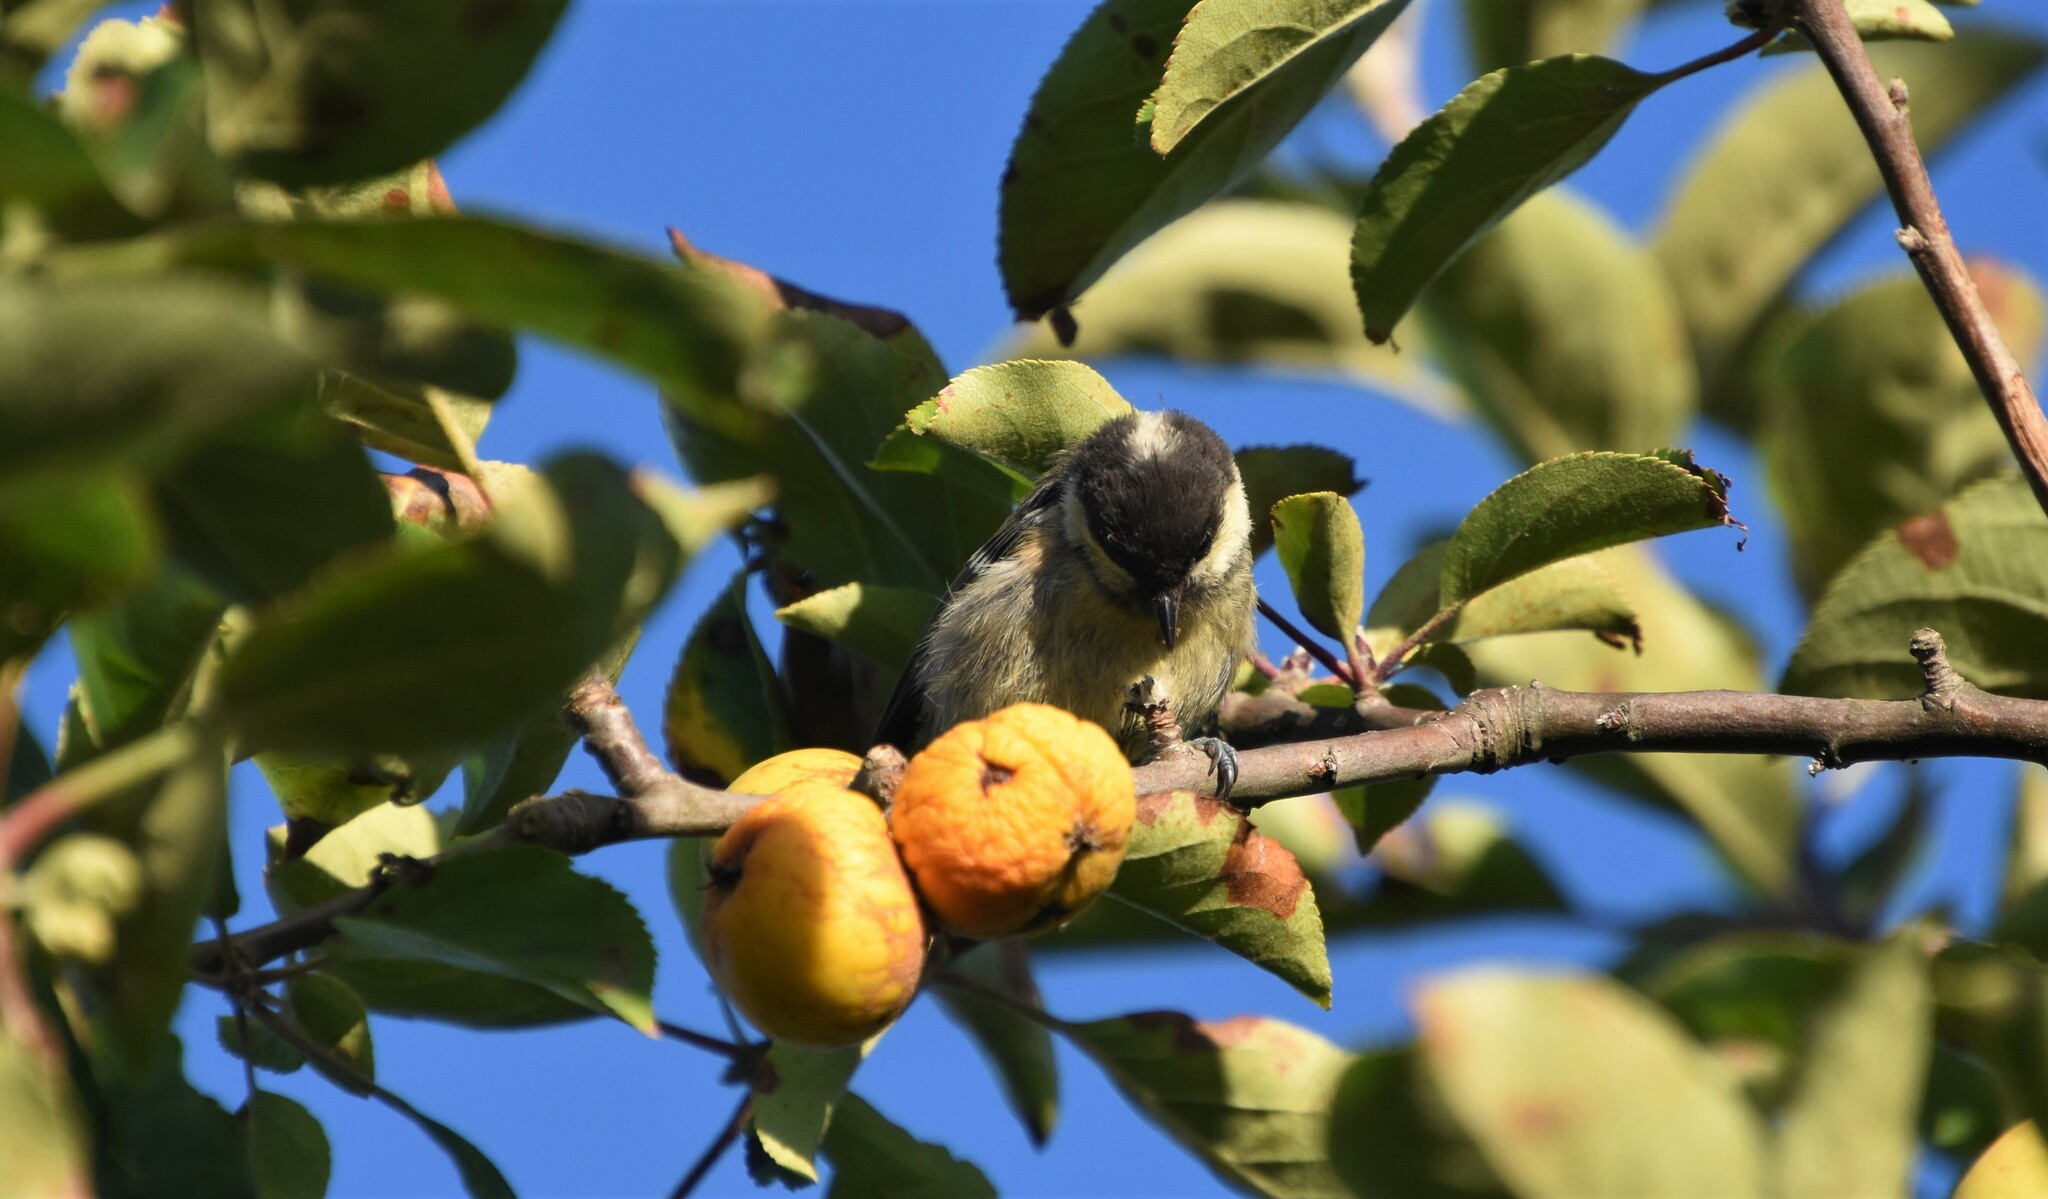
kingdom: Animalia
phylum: Chordata
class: Aves
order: Passeriformes
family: Paridae
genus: Periparus
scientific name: Periparus ater
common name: Coal tit
